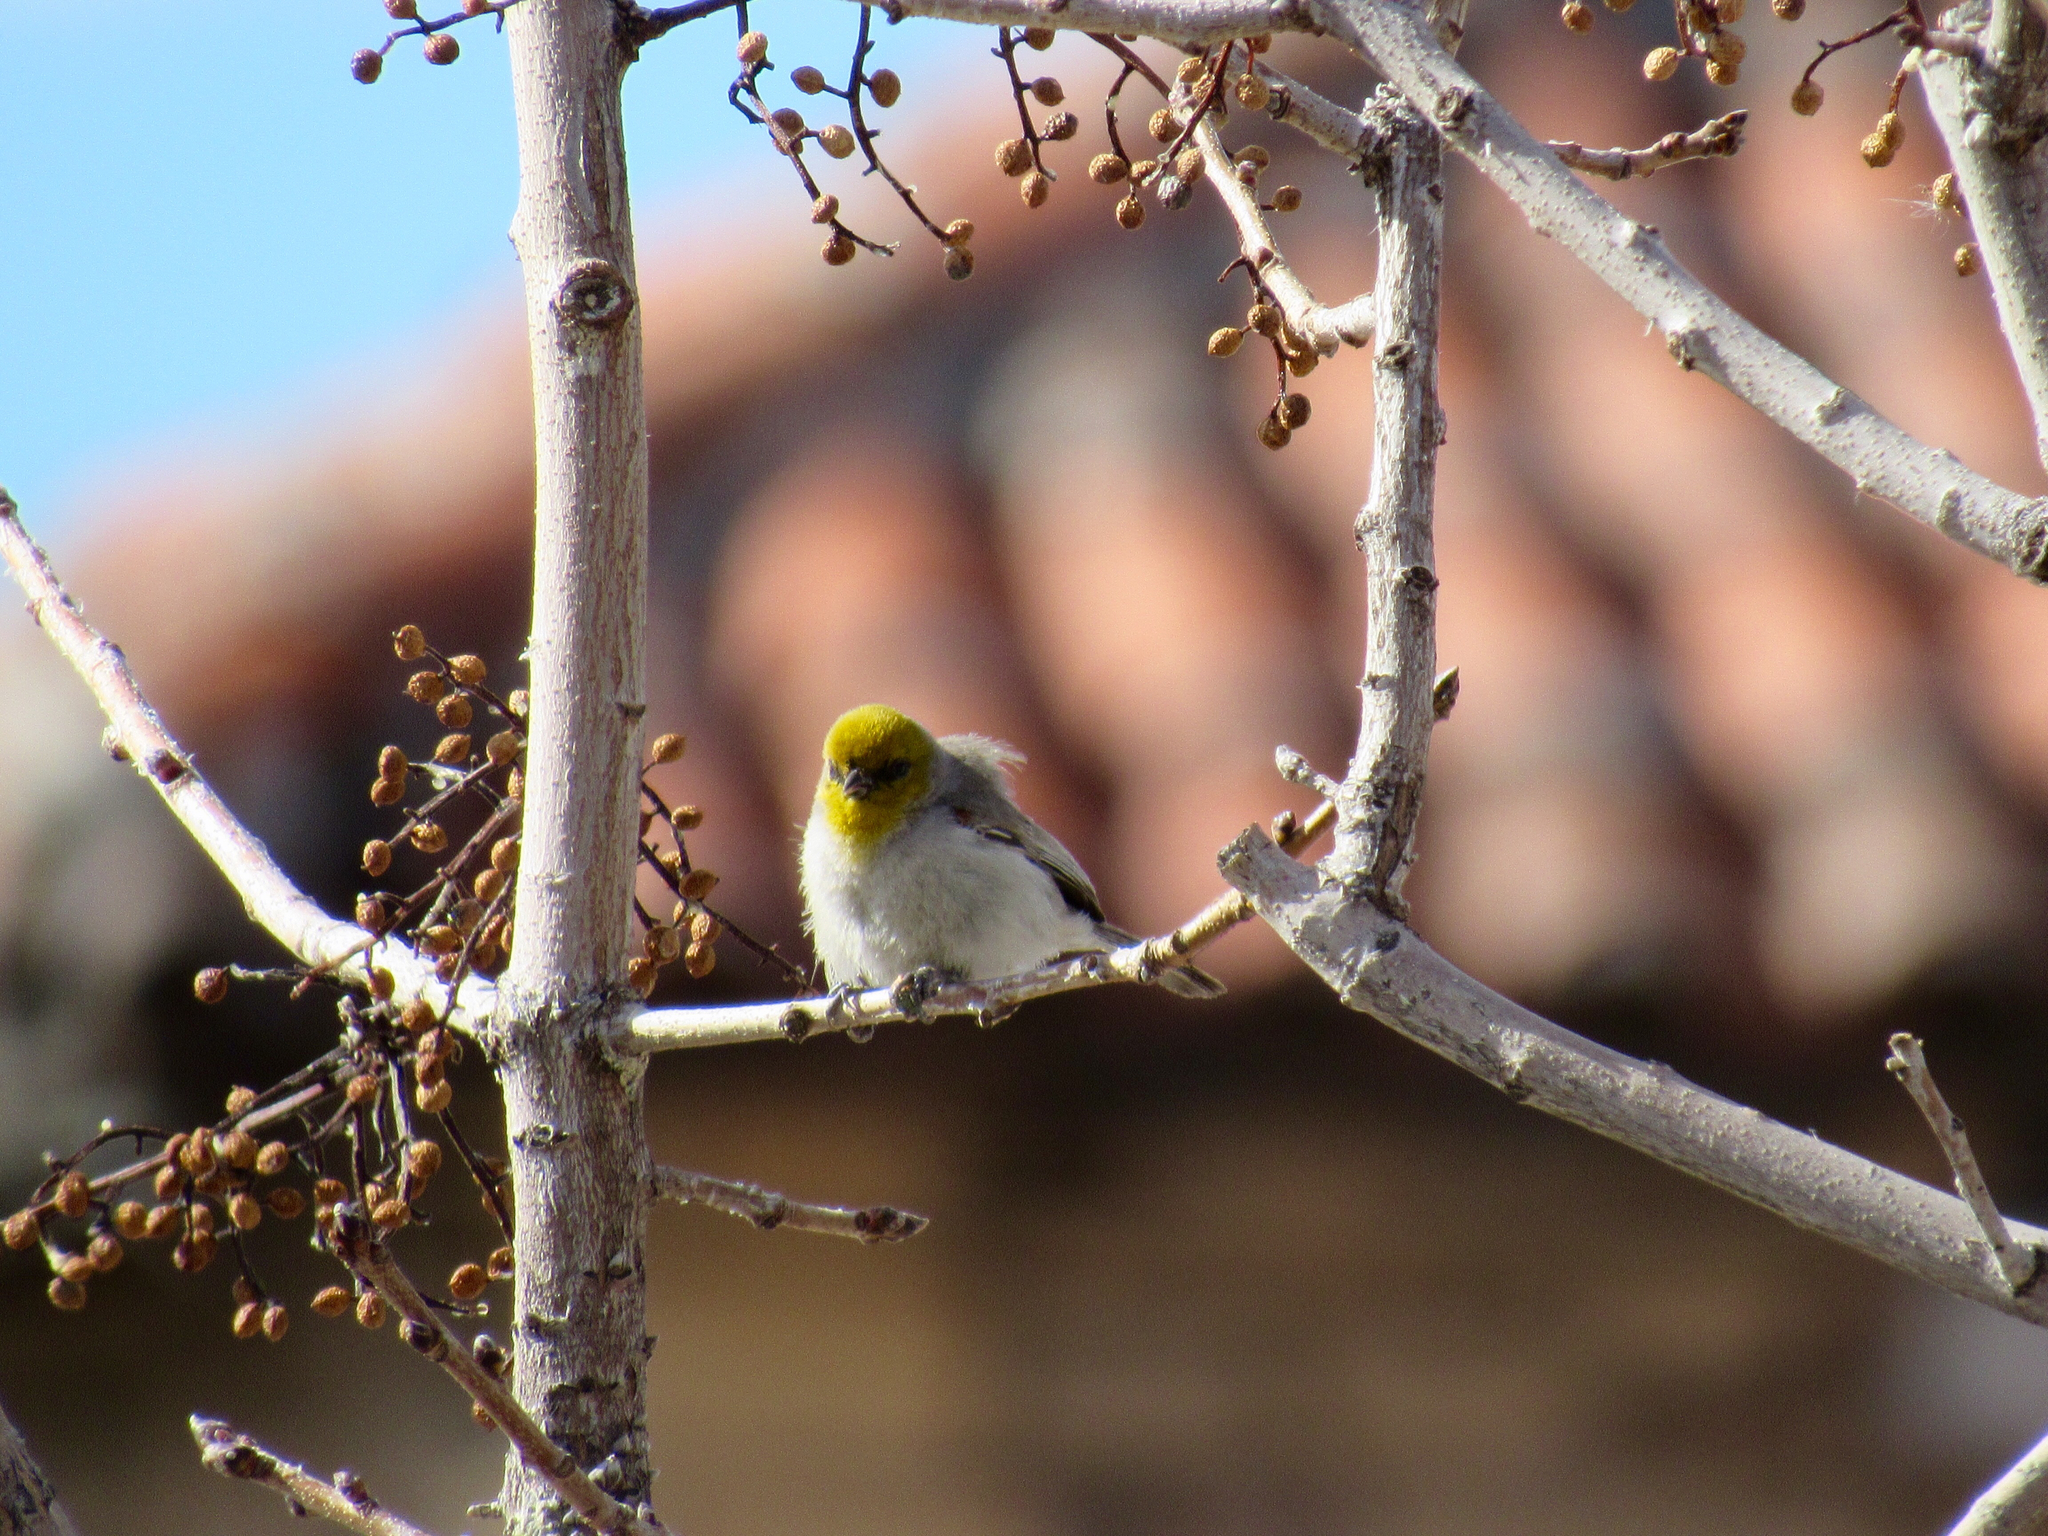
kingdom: Animalia
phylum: Chordata
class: Aves
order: Passeriformes
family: Remizidae
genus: Auriparus
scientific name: Auriparus flaviceps
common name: Verdin
